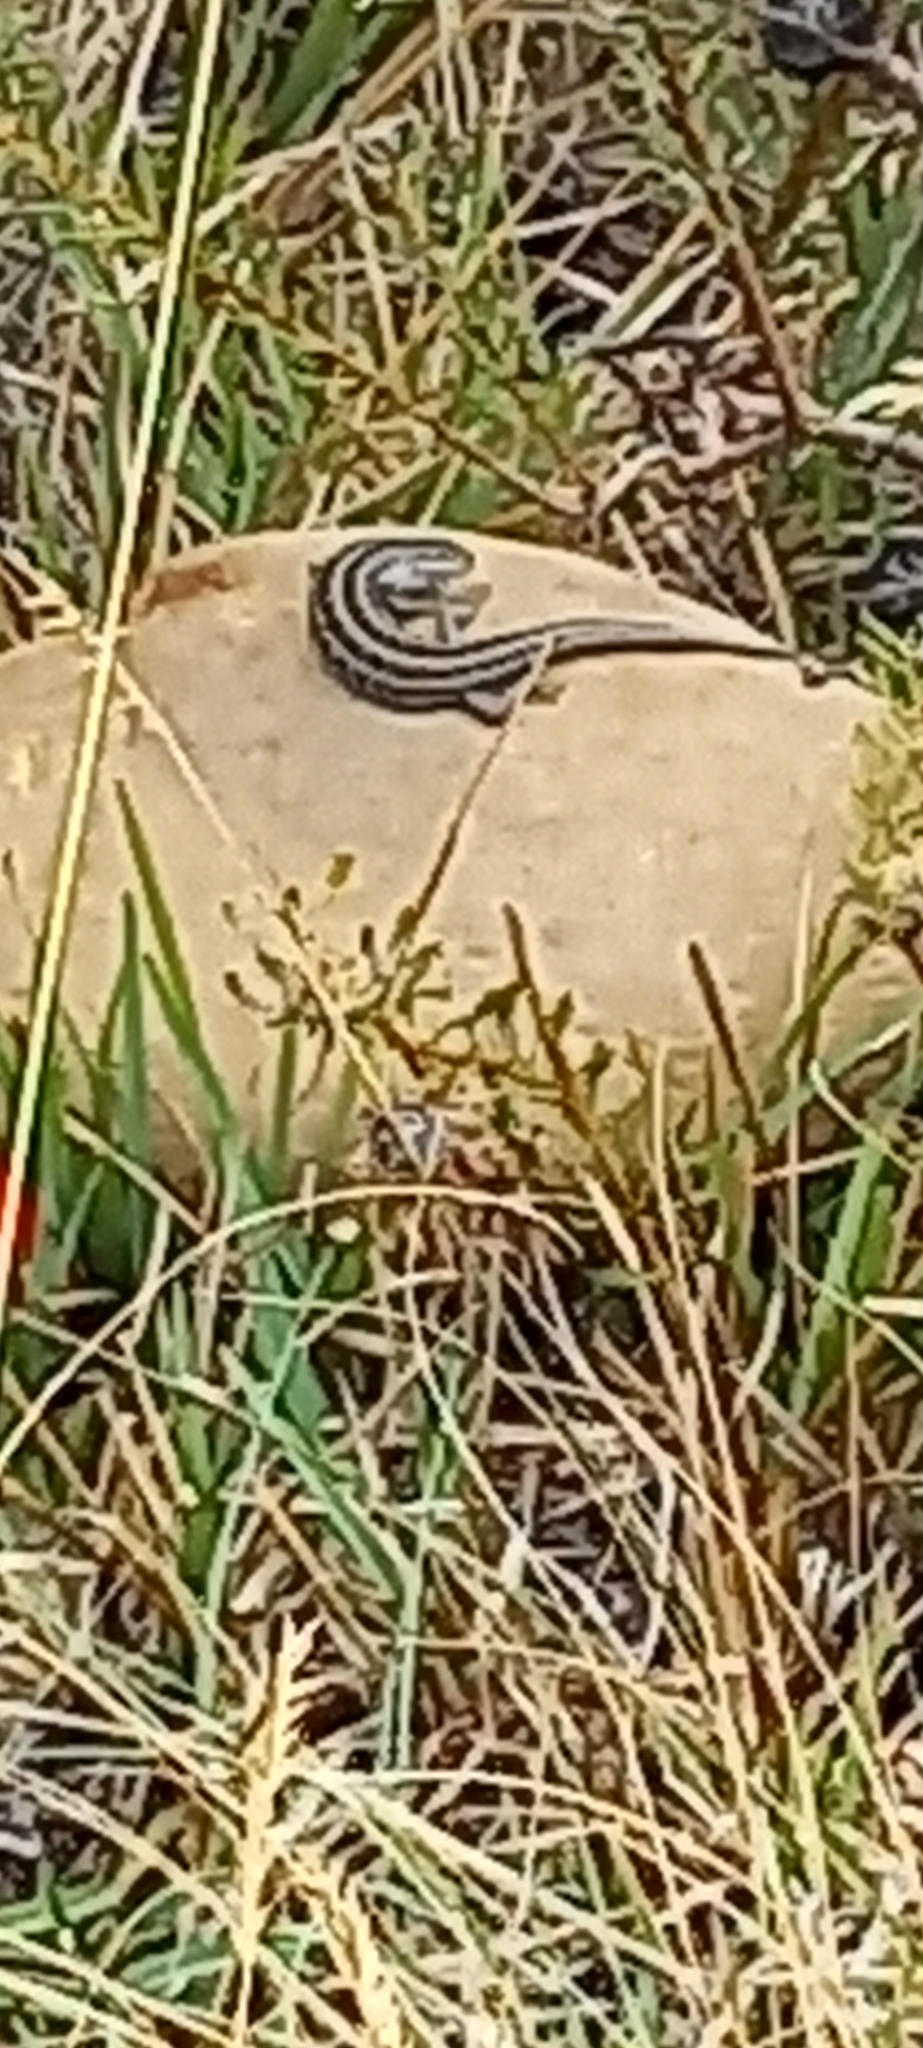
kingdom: Animalia
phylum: Chordata
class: Squamata
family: Scincidae
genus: Trachylepis
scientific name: Trachylepis capensis
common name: Cape skink
